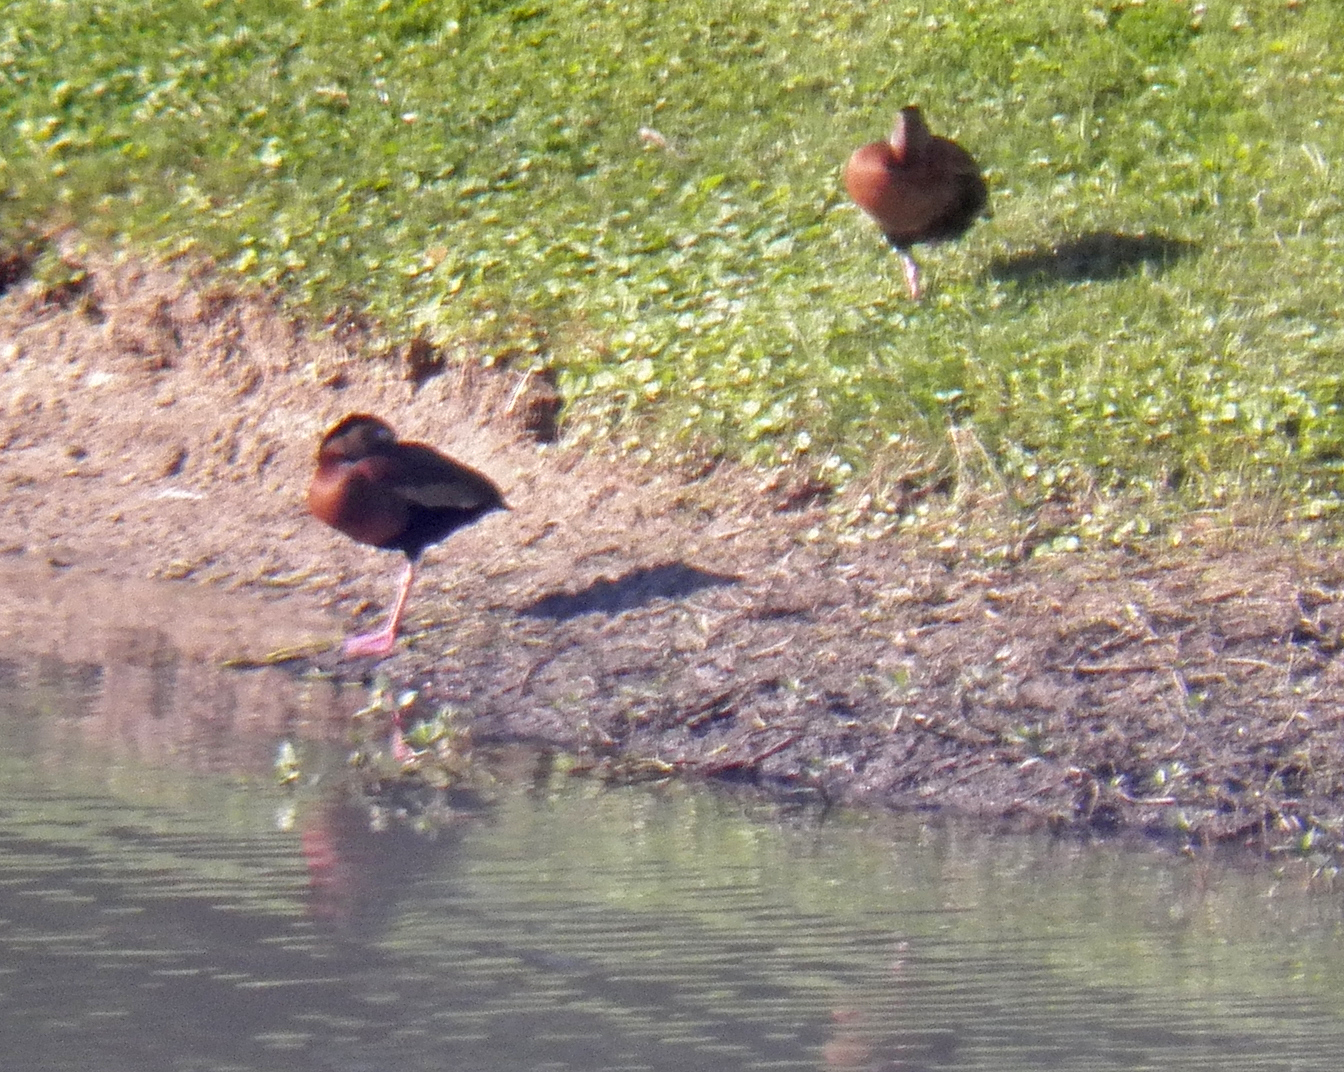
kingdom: Animalia
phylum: Chordata
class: Aves
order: Anseriformes
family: Anatidae
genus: Dendrocygna
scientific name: Dendrocygna autumnalis
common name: Black-bellied whistling duck
